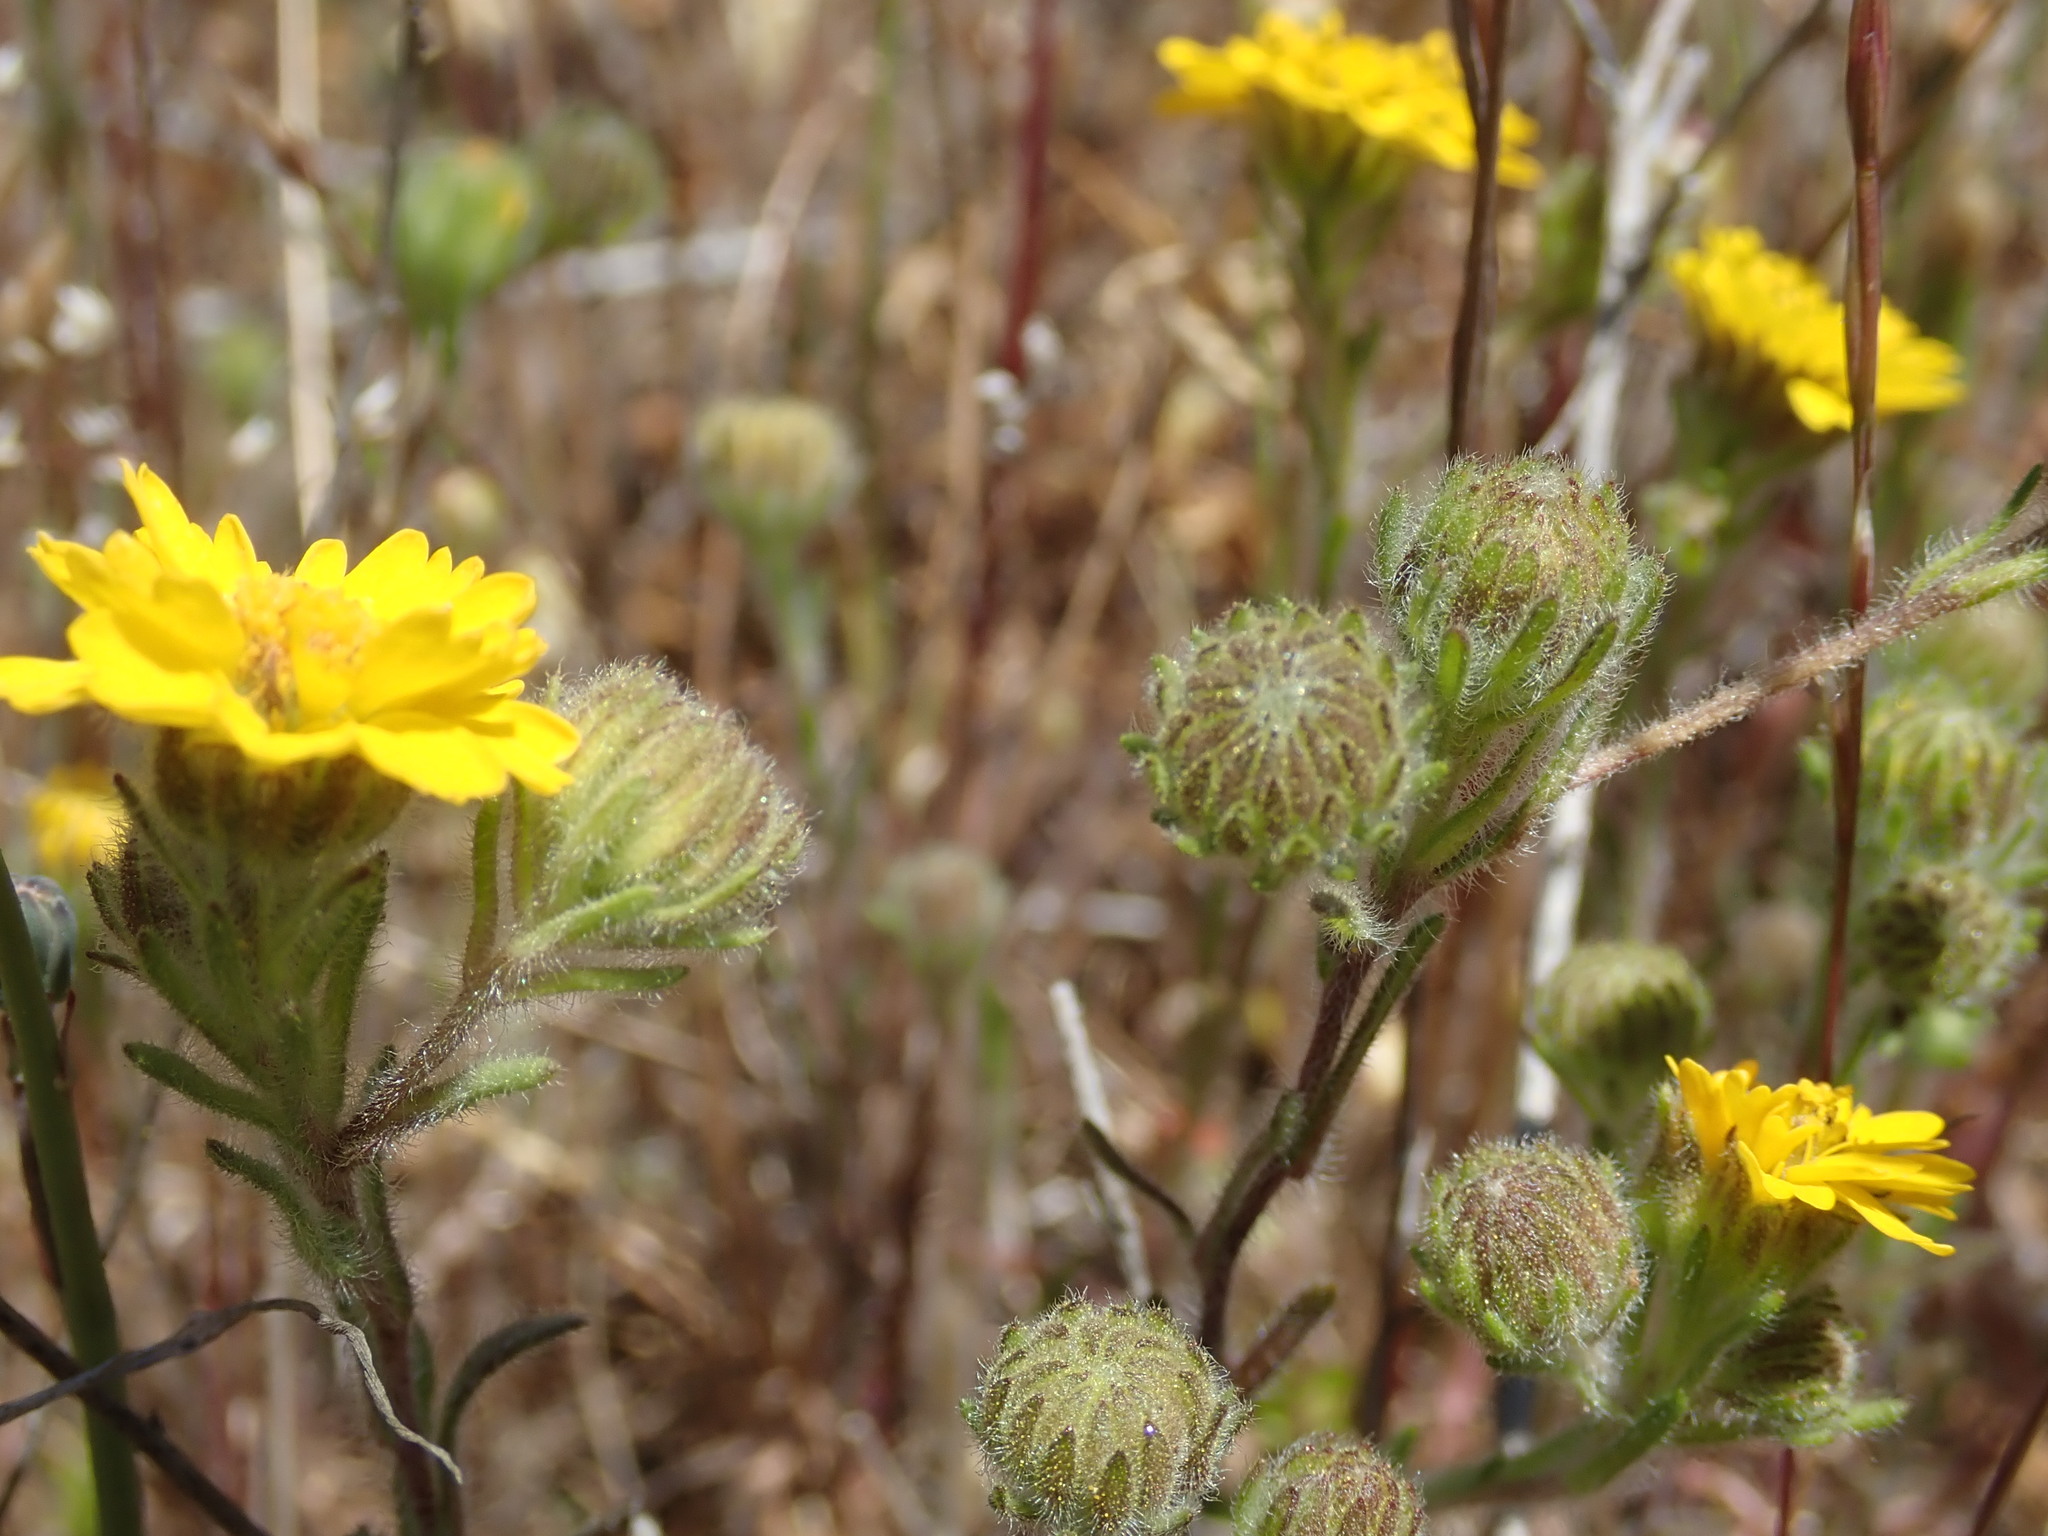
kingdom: Plantae
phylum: Tracheophyta
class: Magnoliopsida
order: Asterales
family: Asteraceae
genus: Deinandra
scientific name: Deinandra corymbosa
